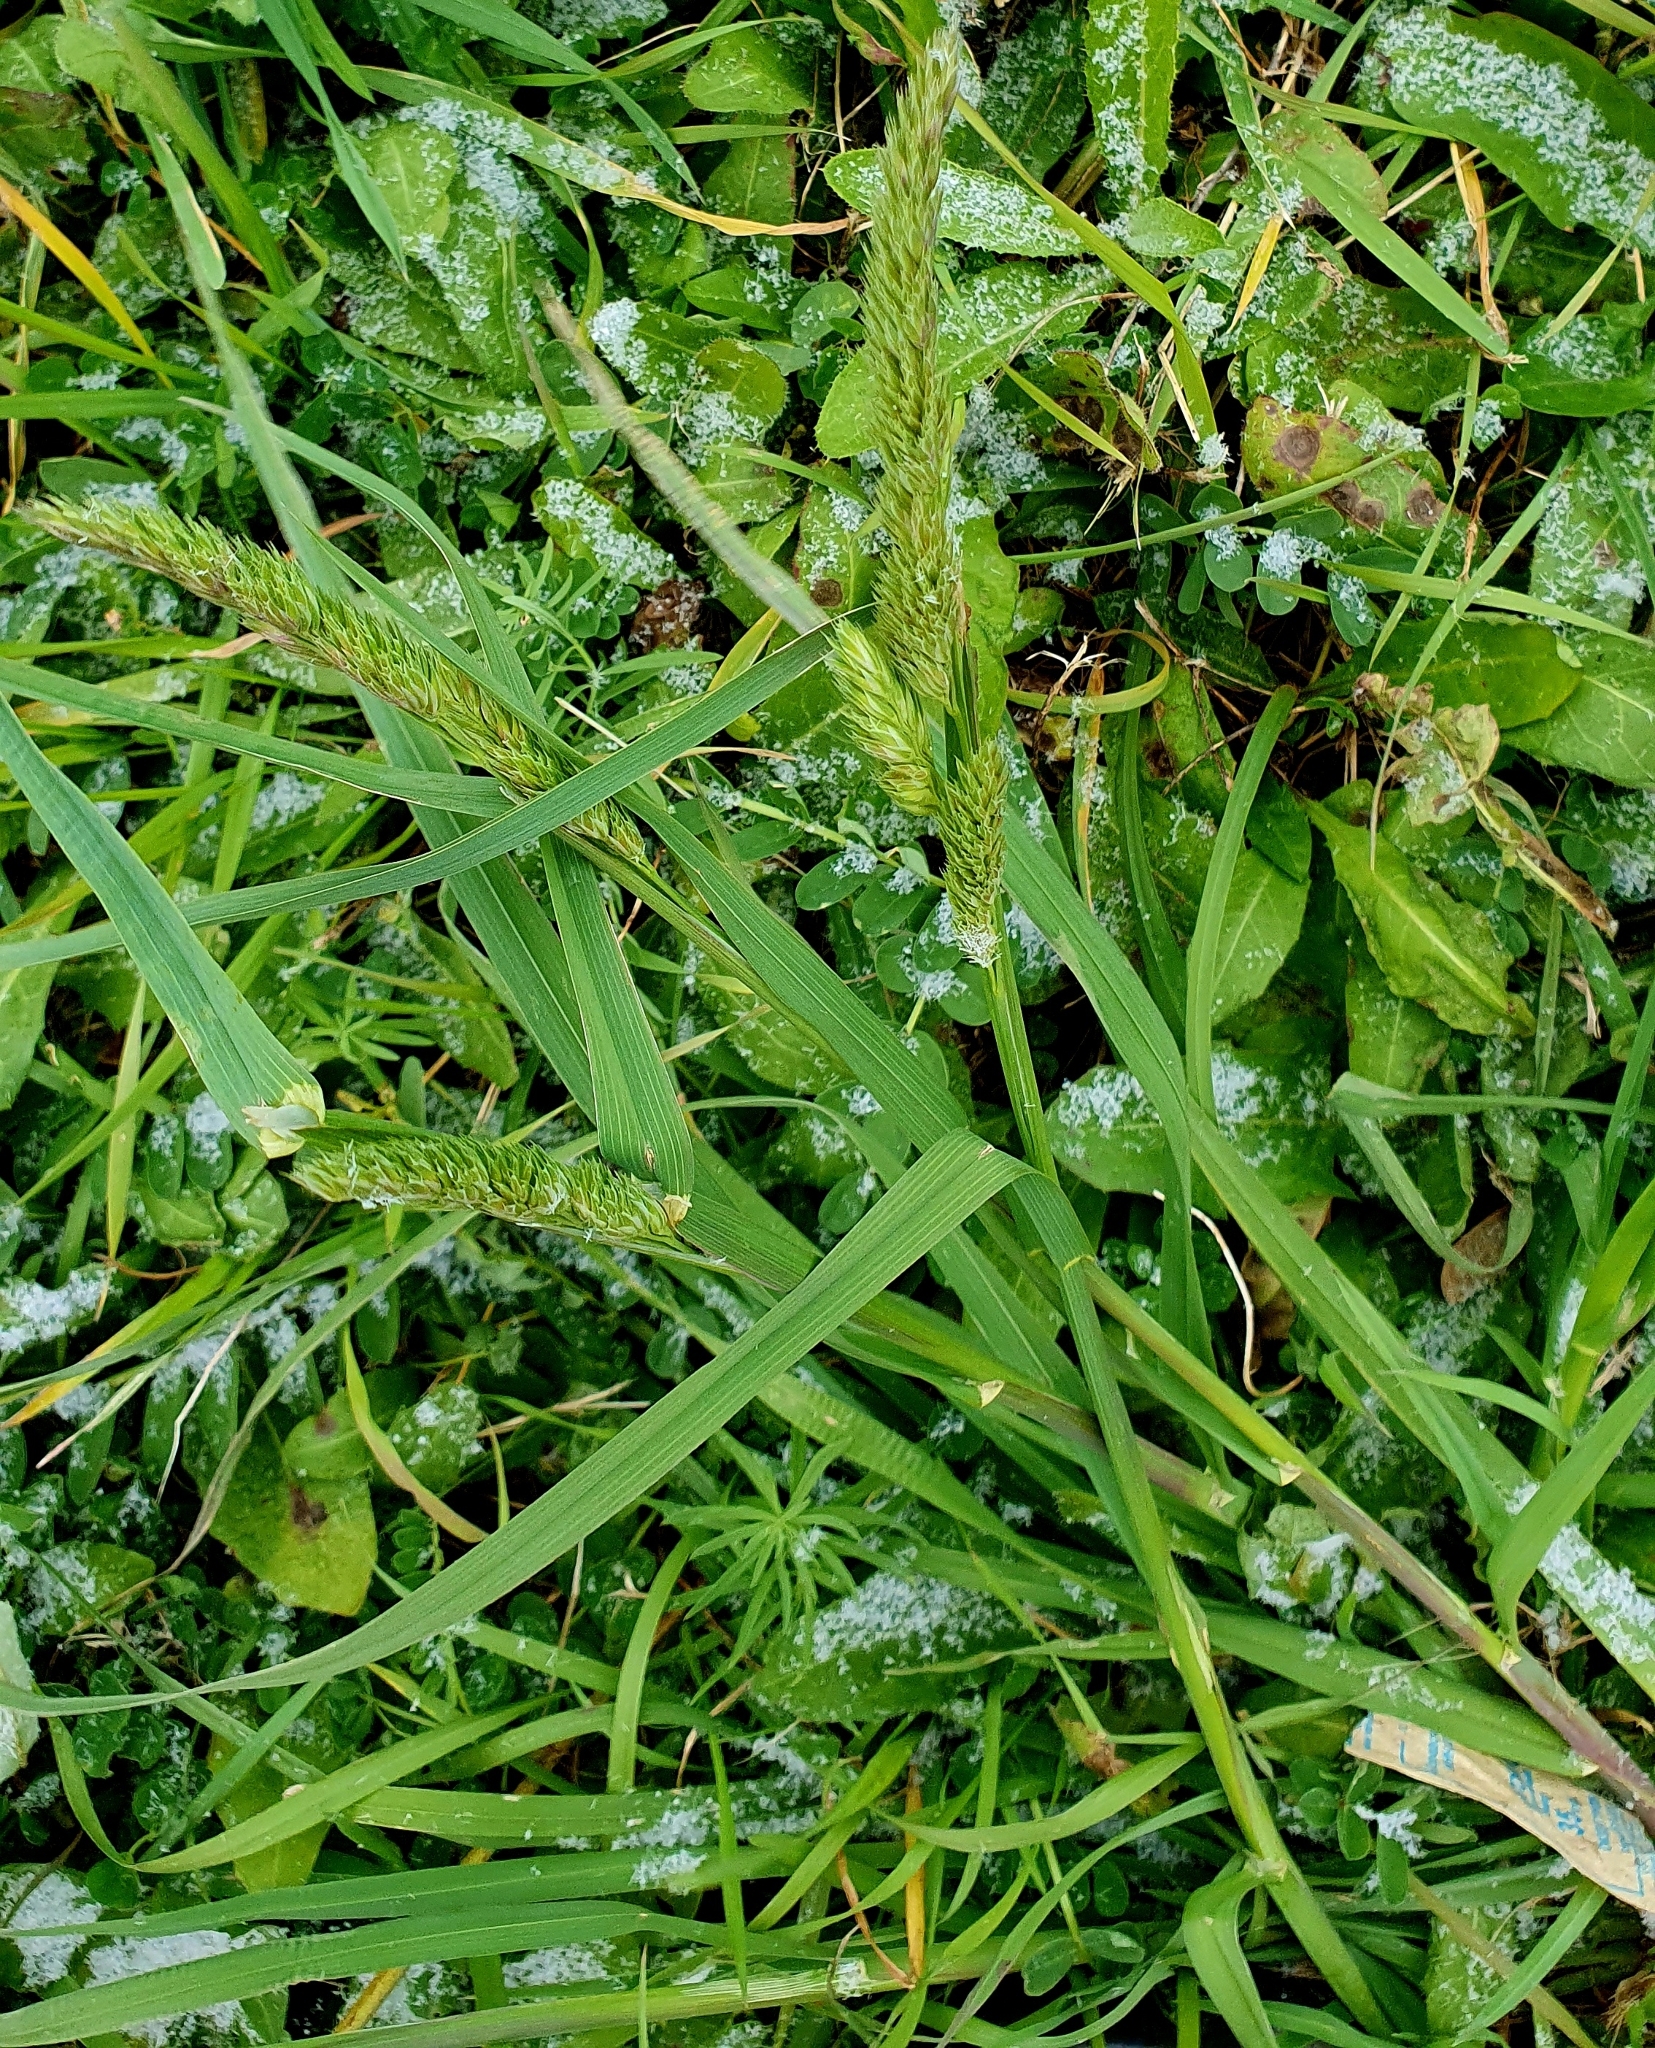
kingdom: Plantae
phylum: Tracheophyta
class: Liliopsida
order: Poales
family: Poaceae
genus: Dactylis
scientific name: Dactylis glomerata
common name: Orchardgrass
